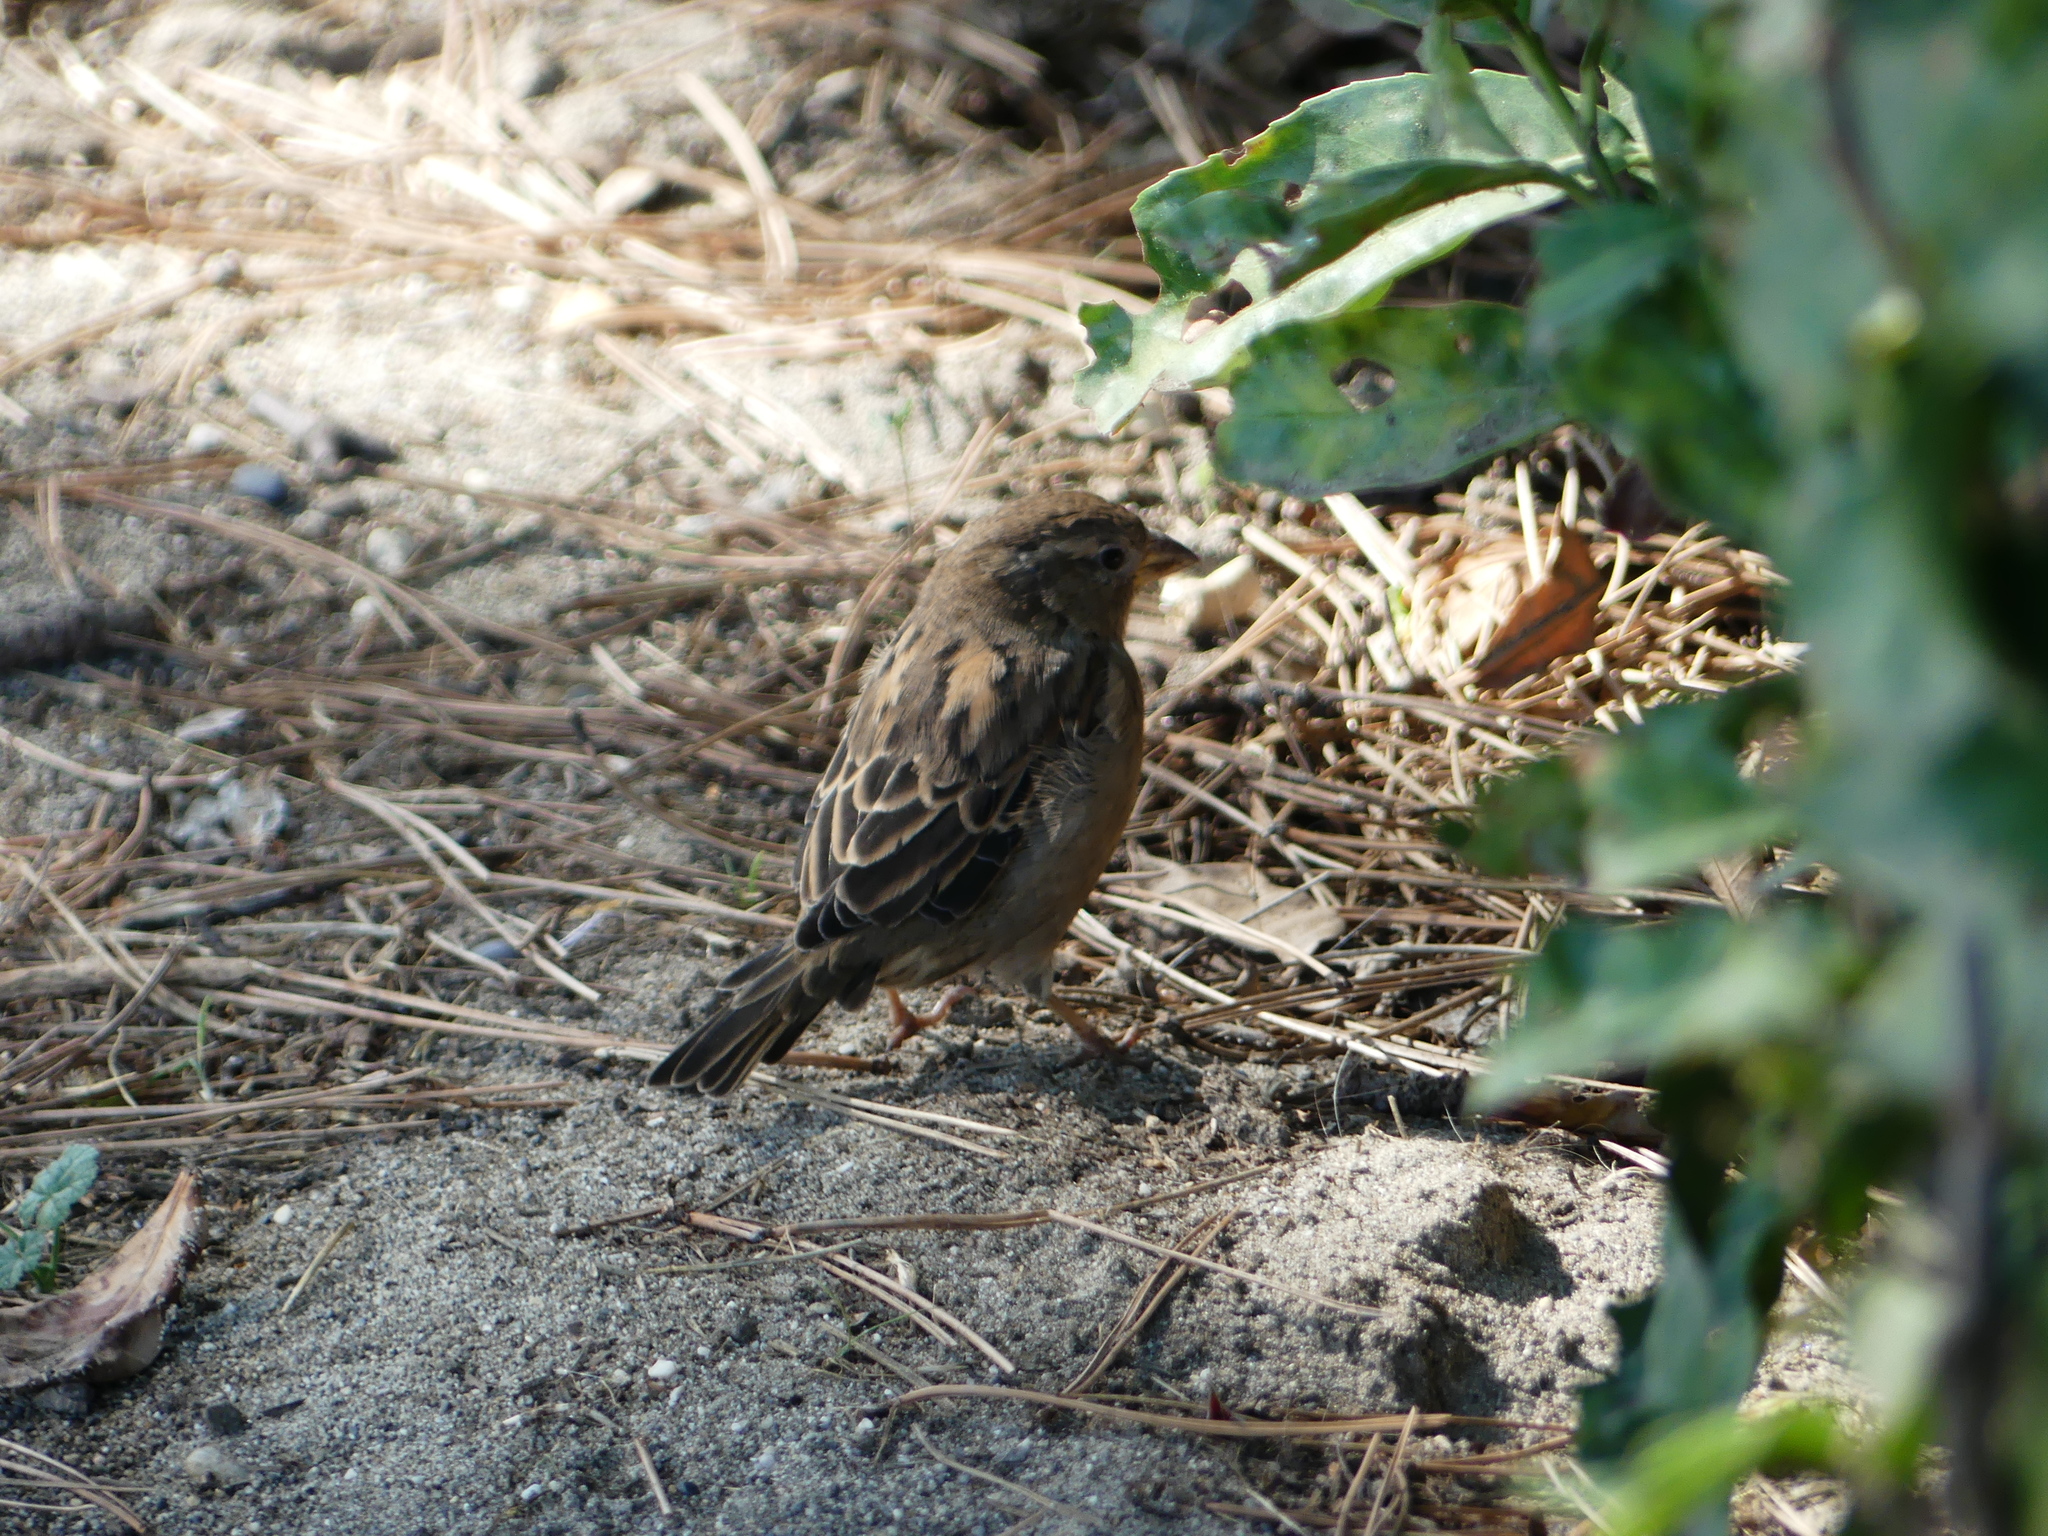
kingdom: Animalia
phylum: Chordata
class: Aves
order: Passeriformes
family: Passeridae
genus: Passer
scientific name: Passer domesticus
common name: House sparrow
